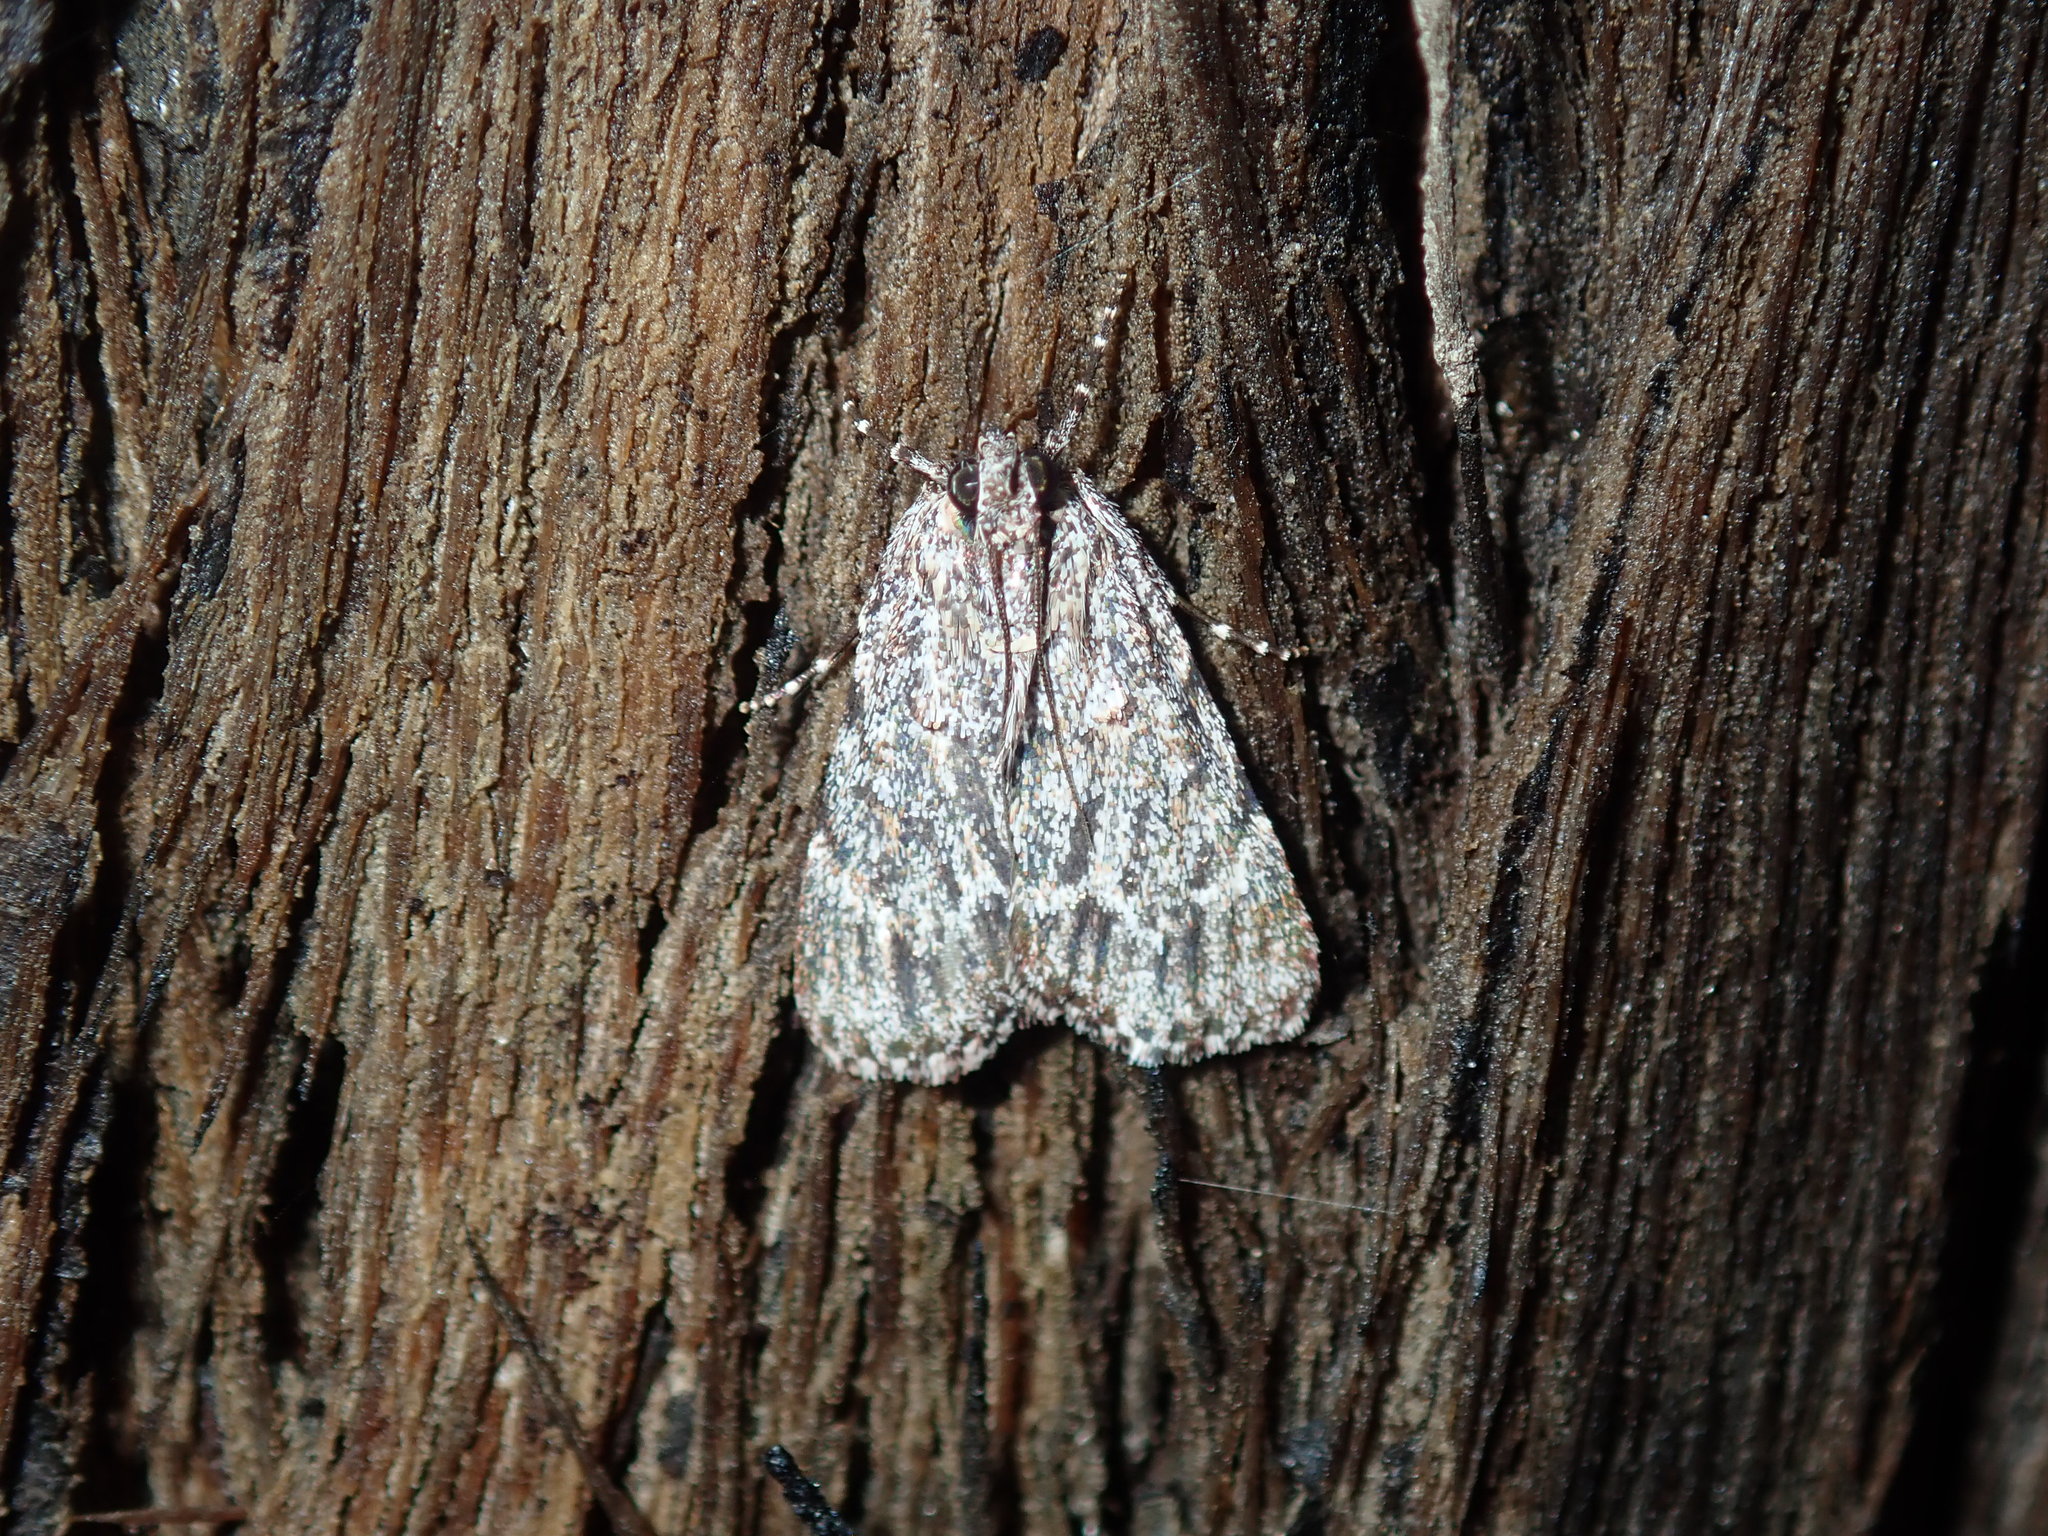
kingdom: Animalia
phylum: Arthropoda
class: Insecta
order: Lepidoptera
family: Pyralidae
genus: Spectrotrota
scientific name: Spectrotrota fimbrialis
